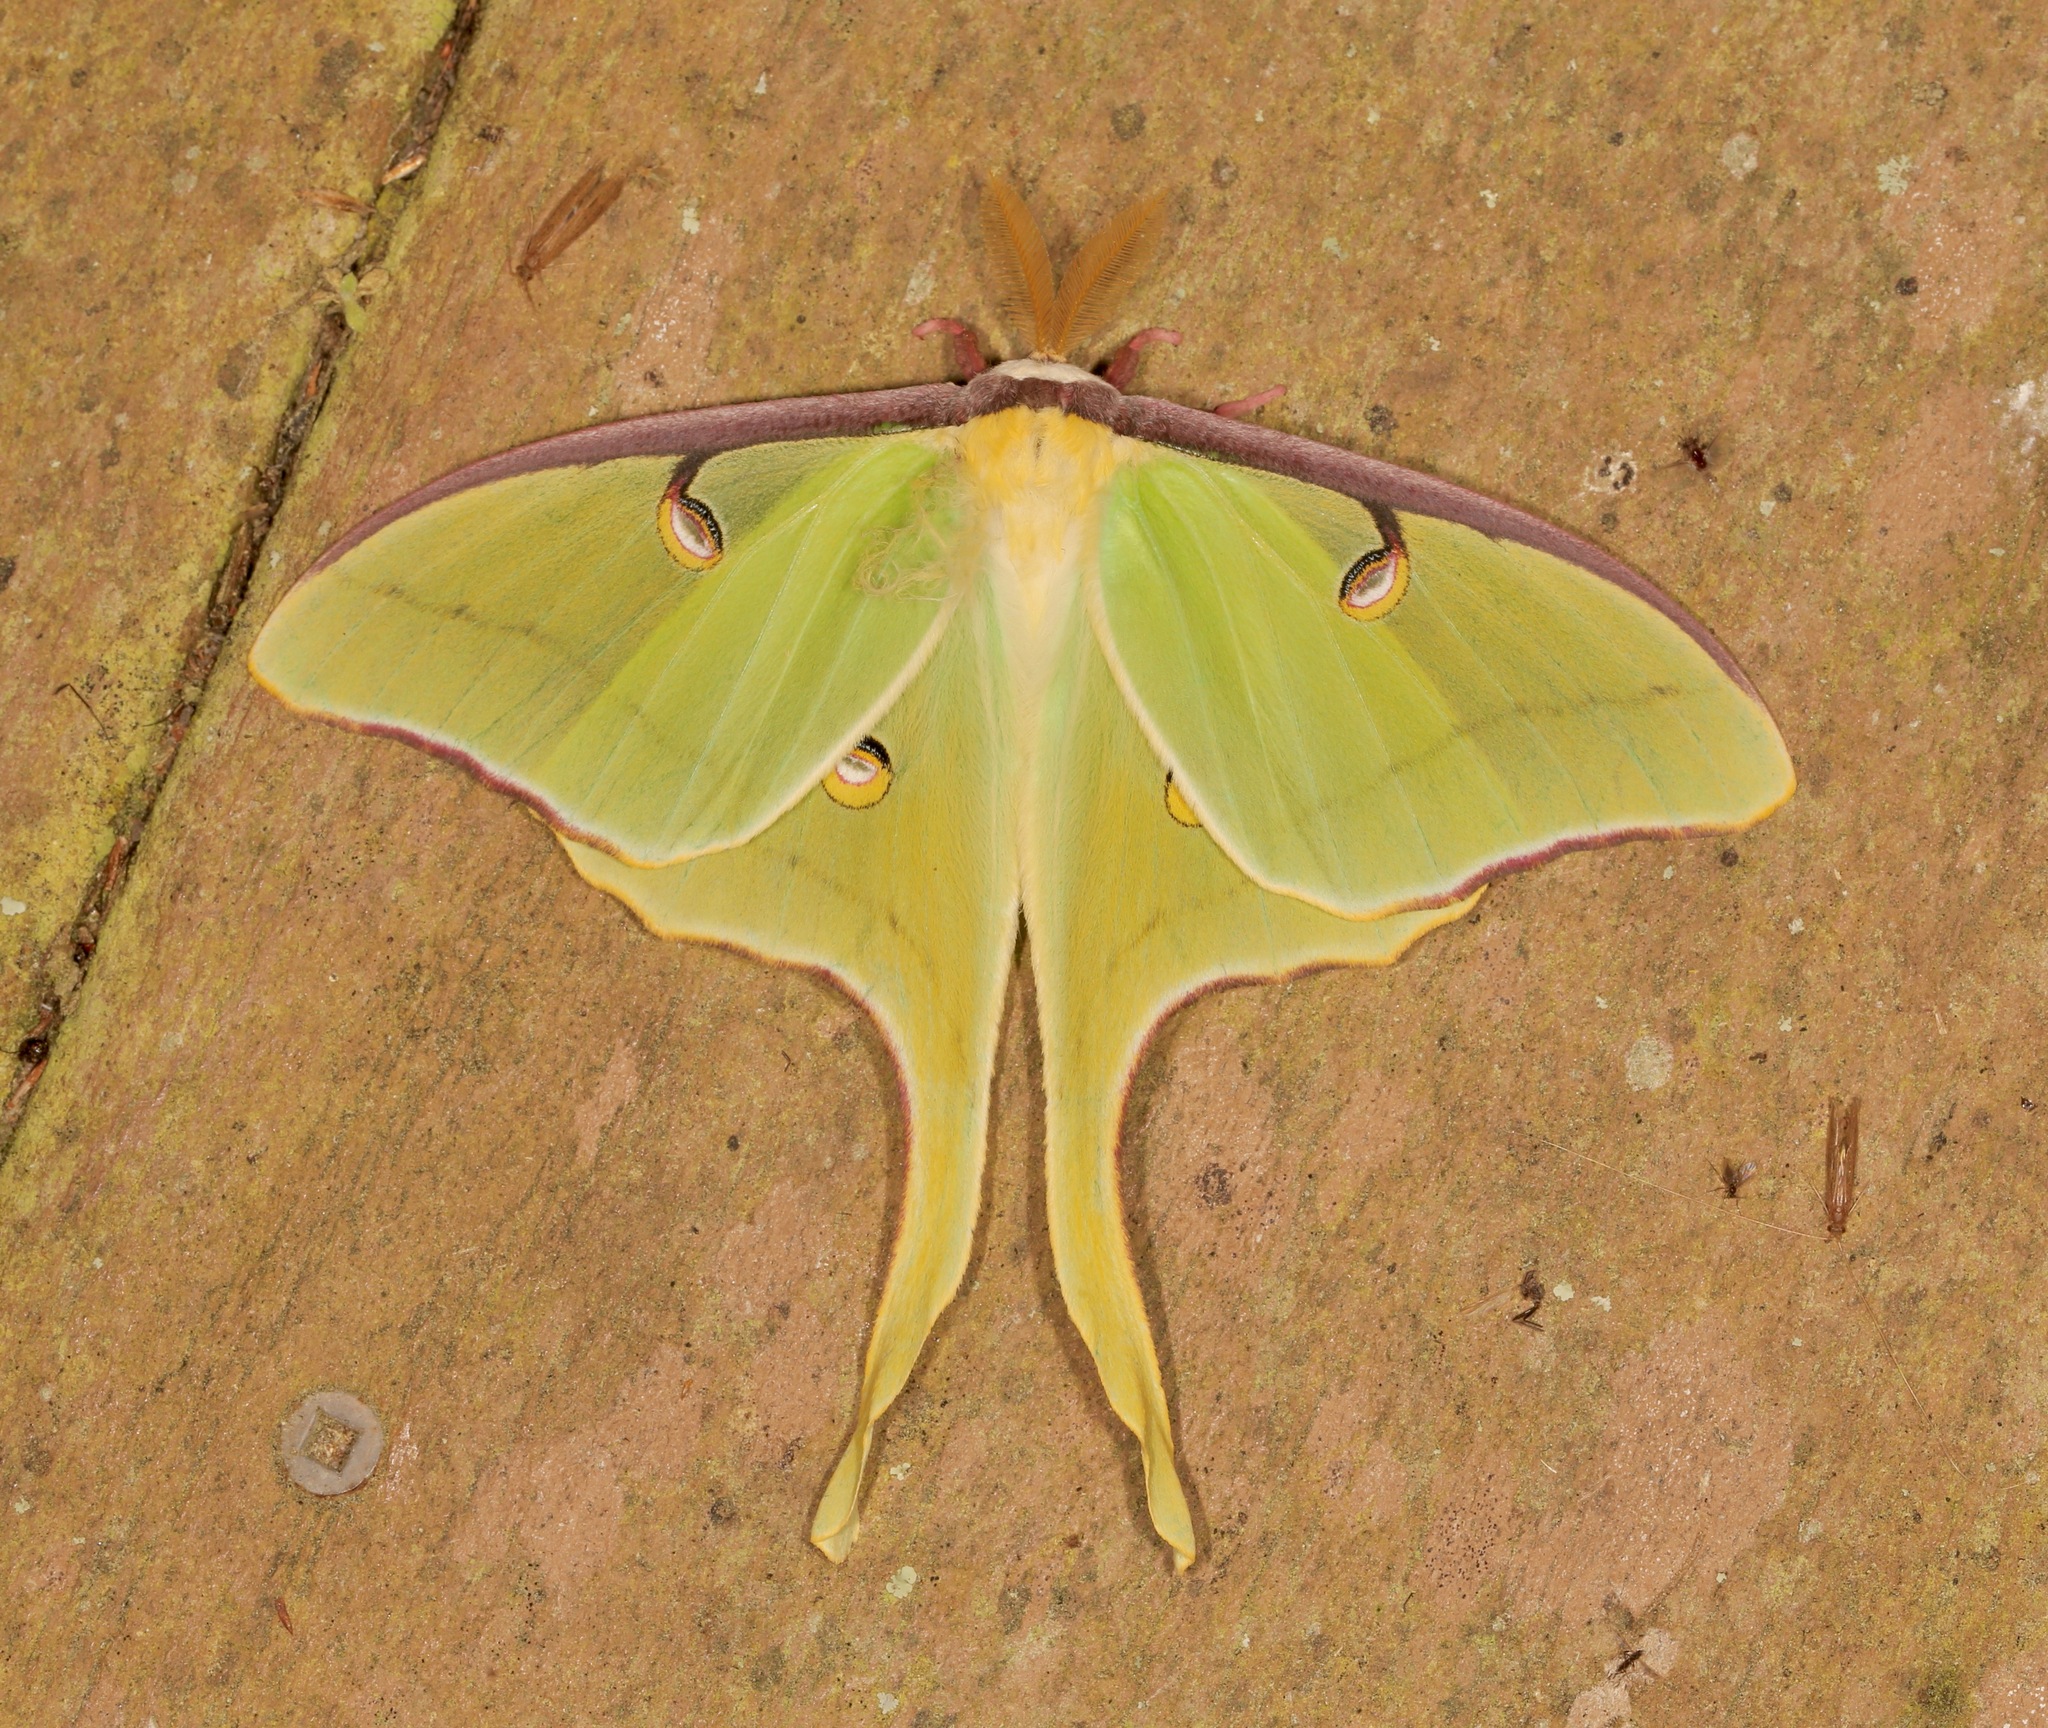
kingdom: Animalia
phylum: Arthropoda
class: Insecta
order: Lepidoptera
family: Saturniidae
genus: Actias
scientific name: Actias luna
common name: Luna moth
